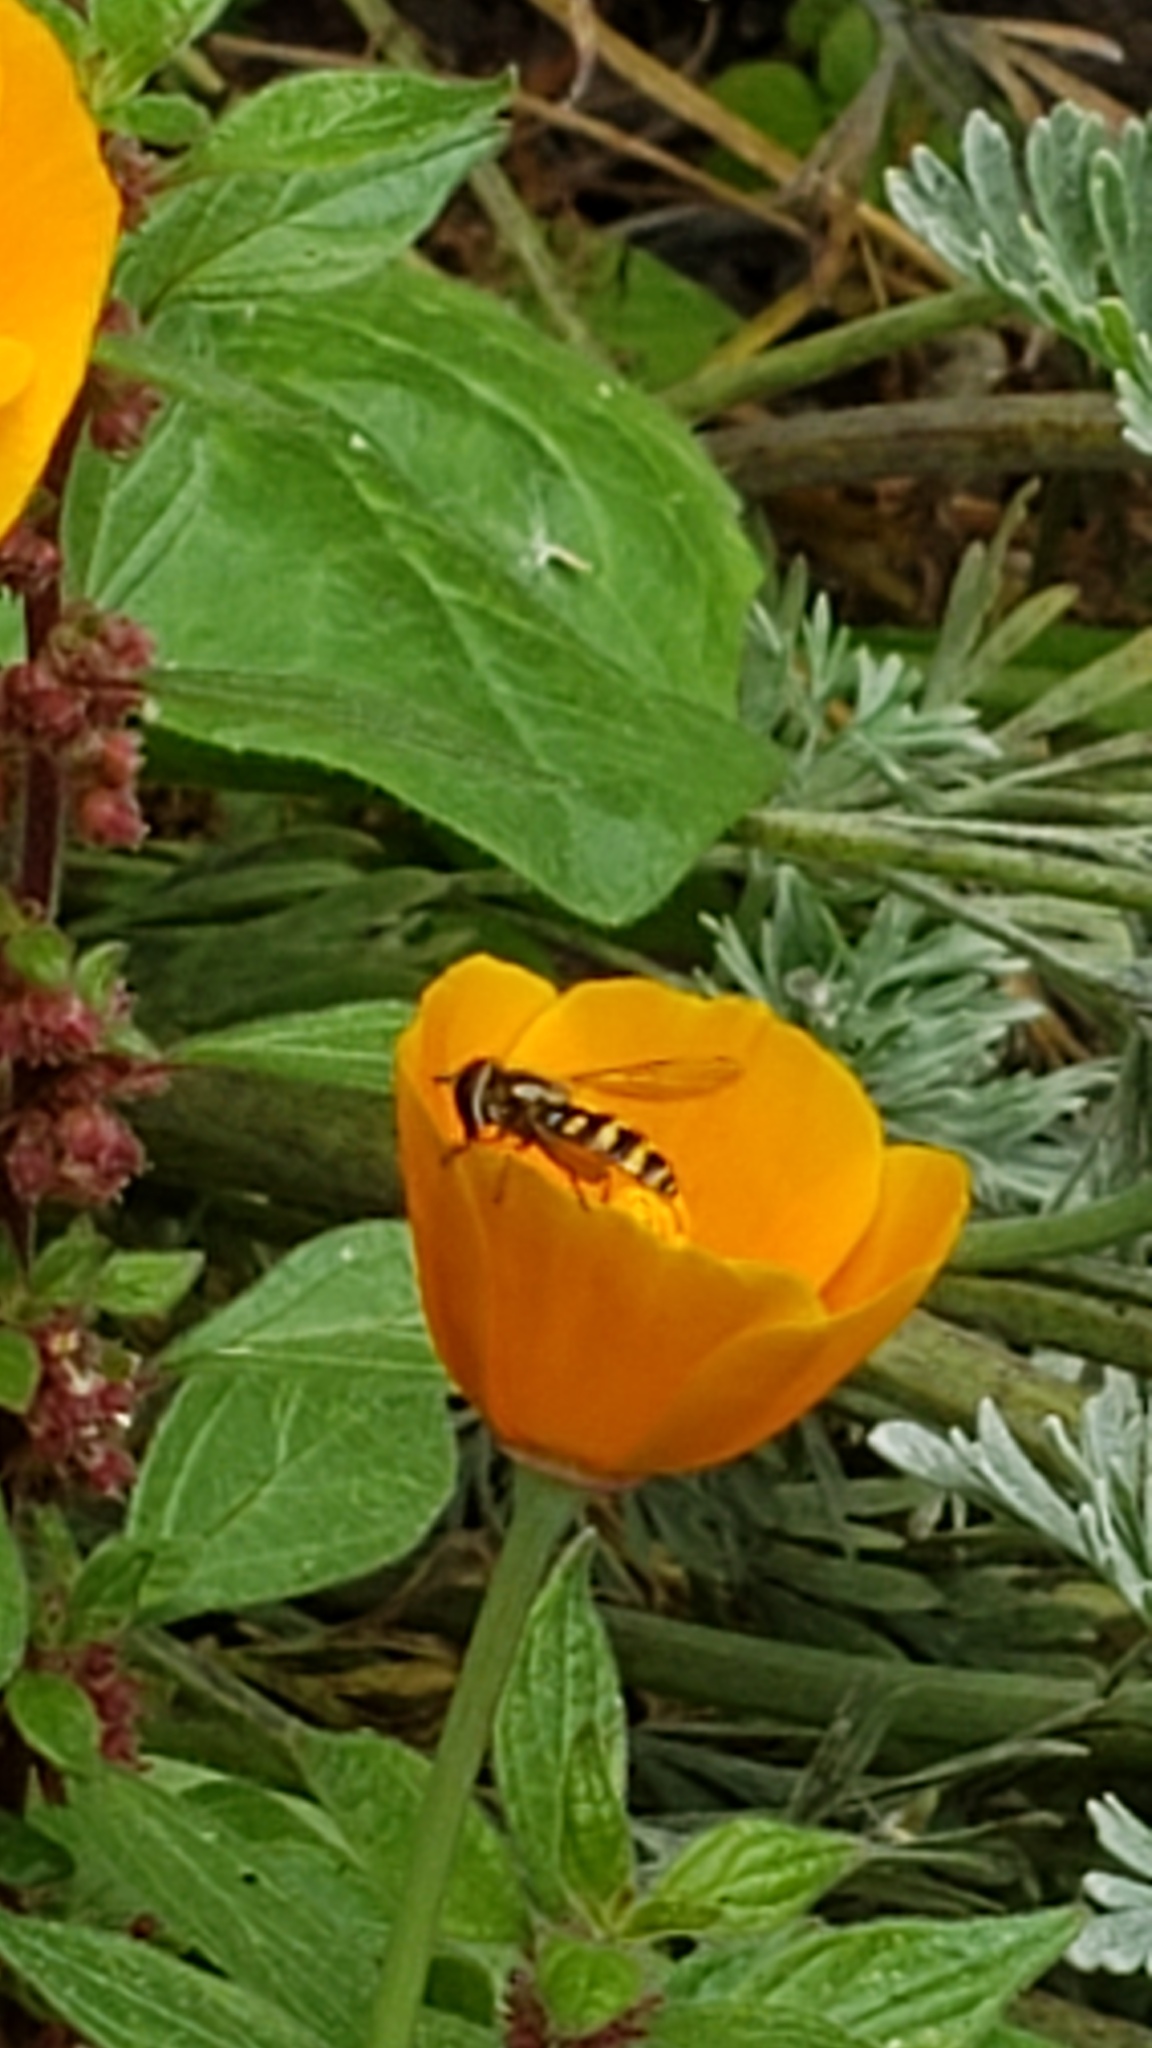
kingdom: Animalia
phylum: Arthropoda
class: Insecta
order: Diptera
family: Syrphidae
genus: Eupeodes
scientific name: Eupeodes fumipennis
